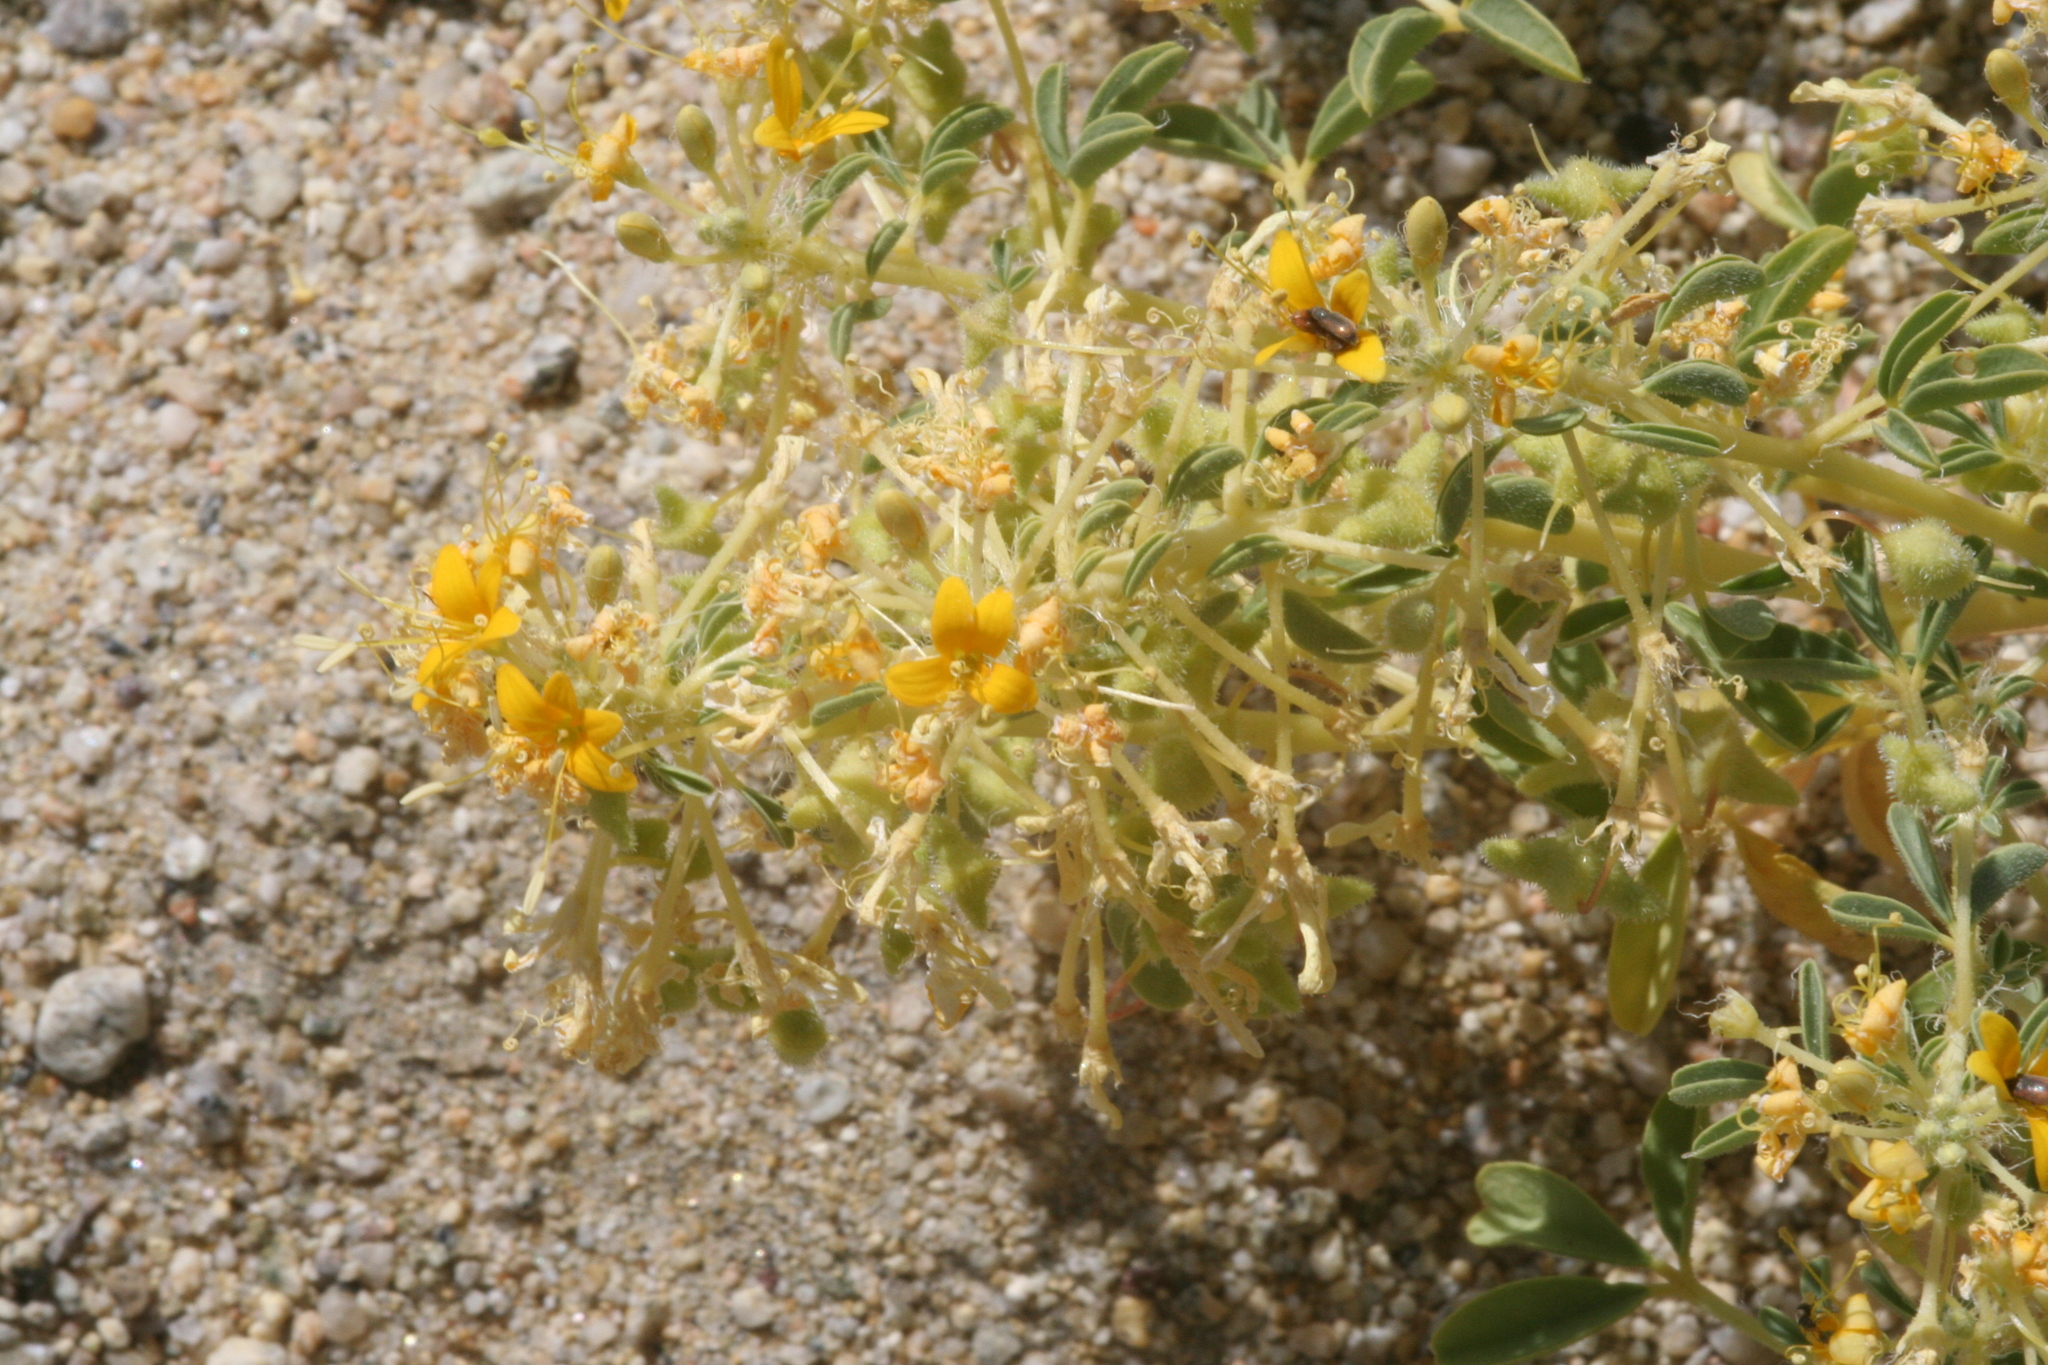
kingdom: Plantae
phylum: Tracheophyta
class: Magnoliopsida
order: Fabales
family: Fabaceae
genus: Senna
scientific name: Senna armata
